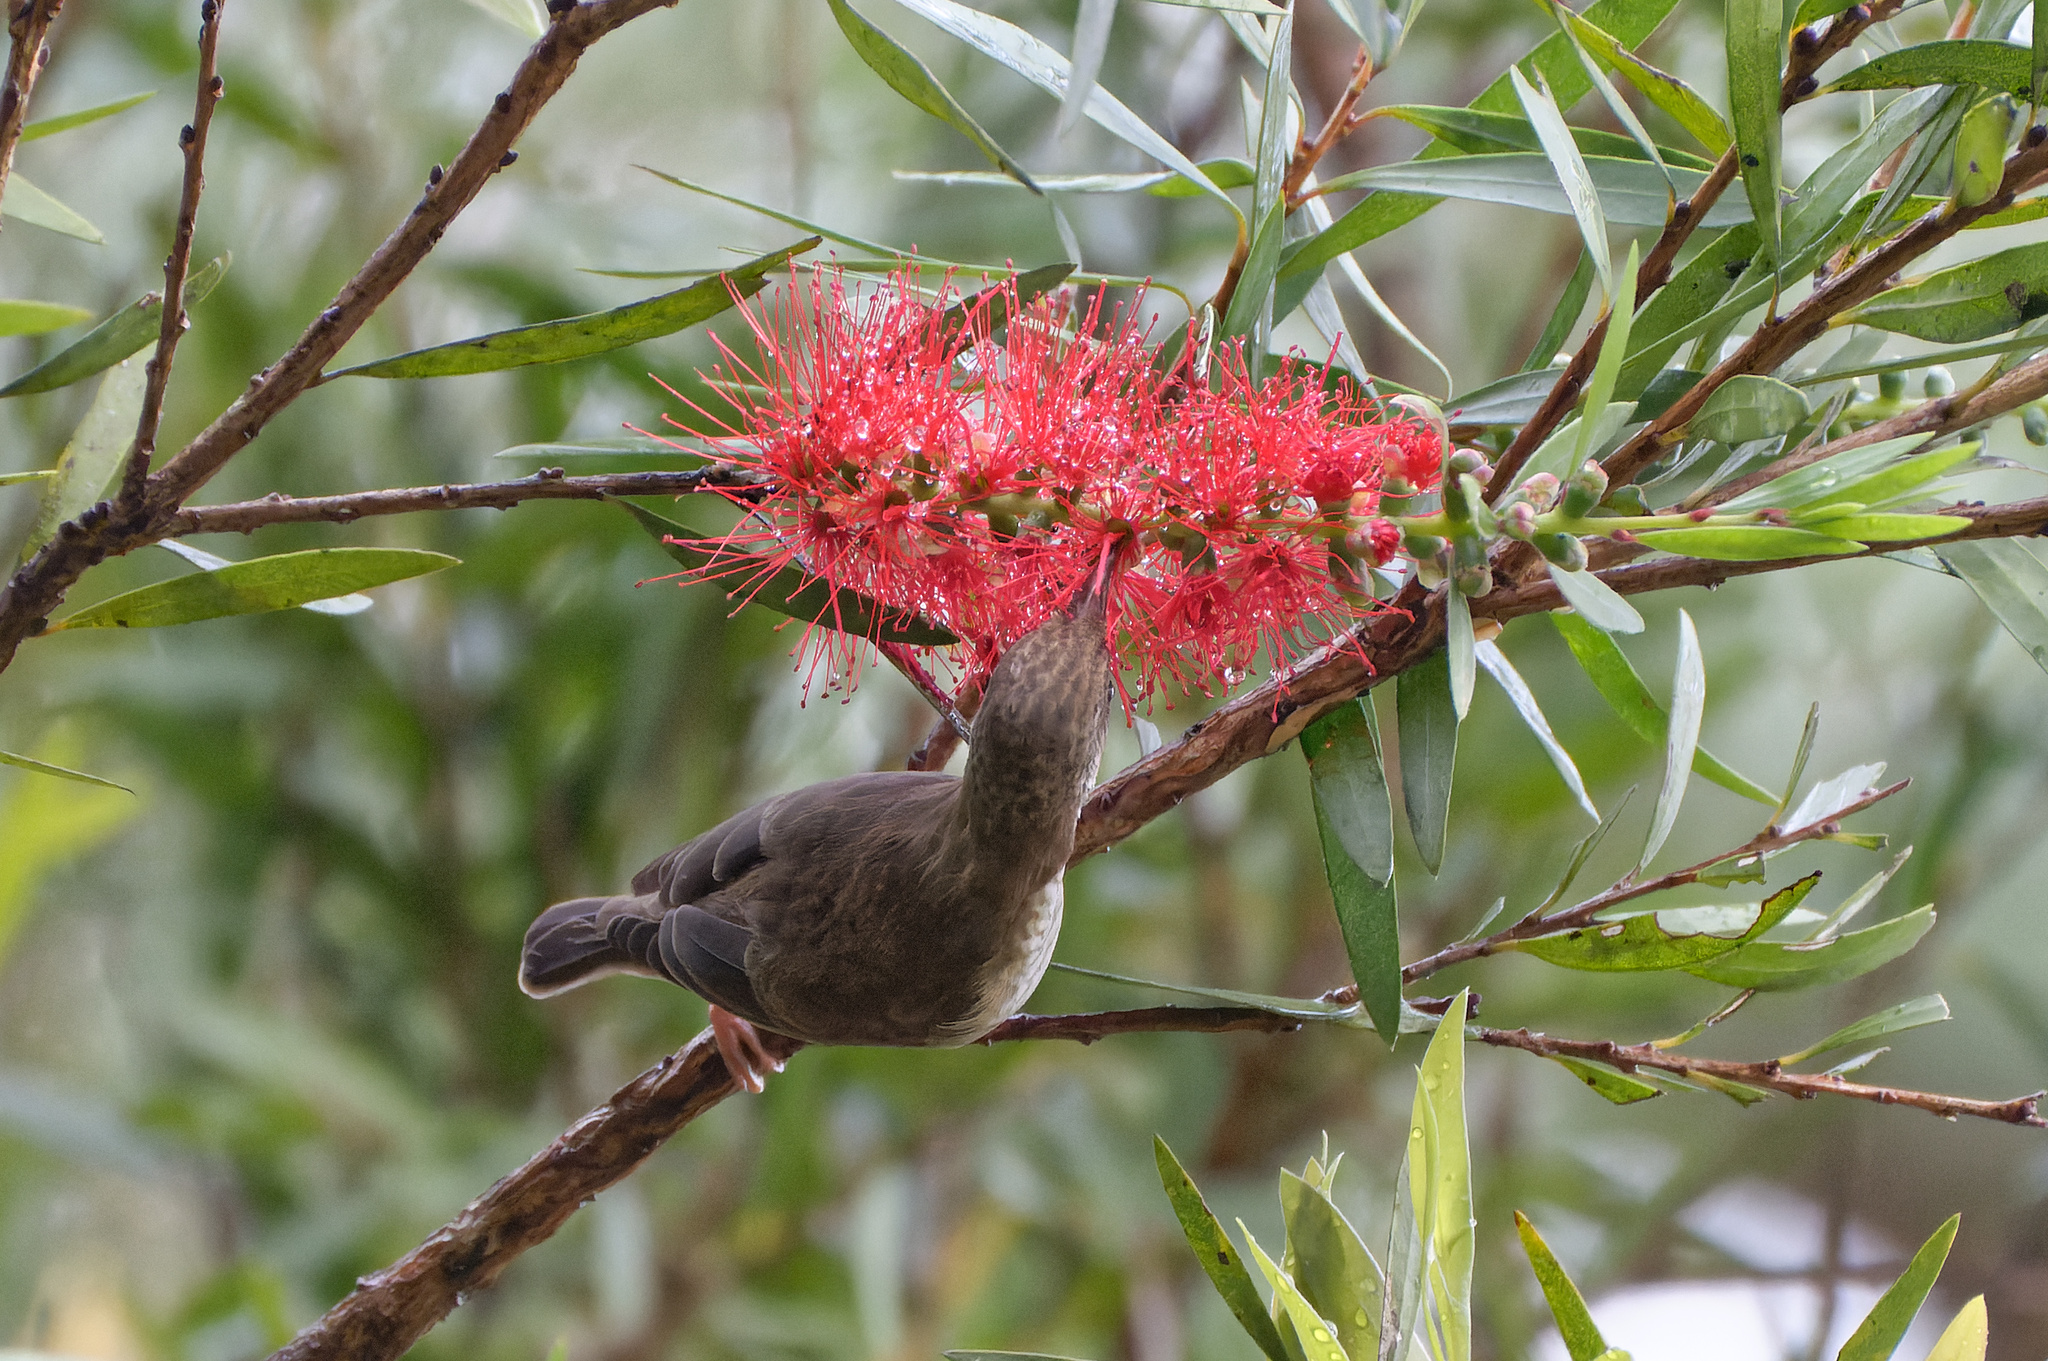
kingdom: Animalia
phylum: Chordata
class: Aves
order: Passeriformes
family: Meliphagidae
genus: Ramsayornis
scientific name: Ramsayornis modestus
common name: Brown-backed honeyeater
